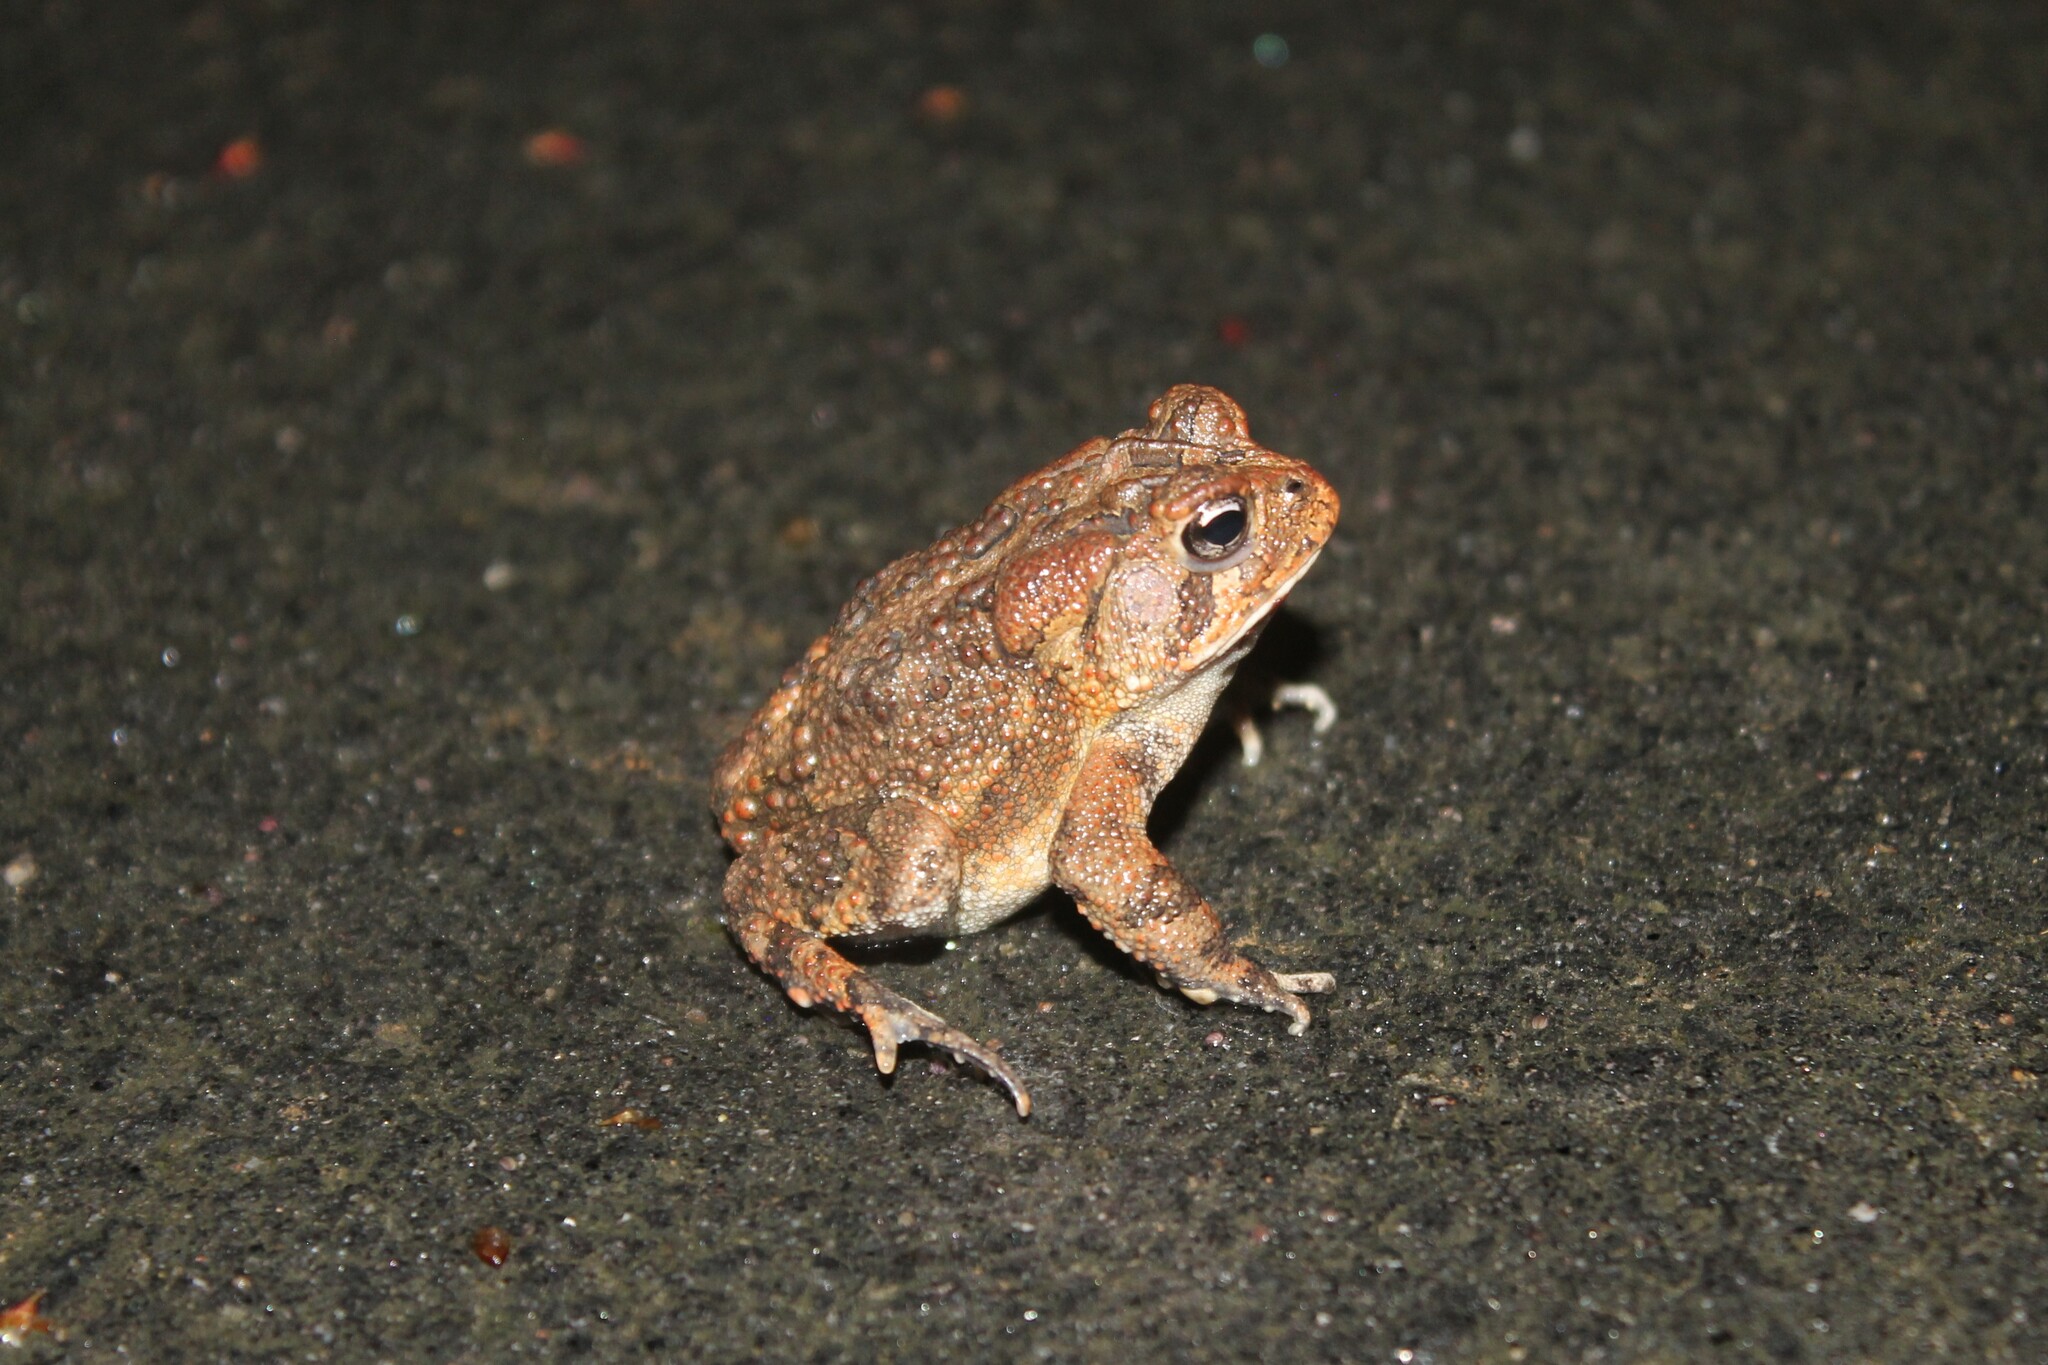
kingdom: Animalia
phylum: Chordata
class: Amphibia
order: Anura
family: Bufonidae
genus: Anaxyrus
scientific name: Anaxyrus terrestris
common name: Southern toad
